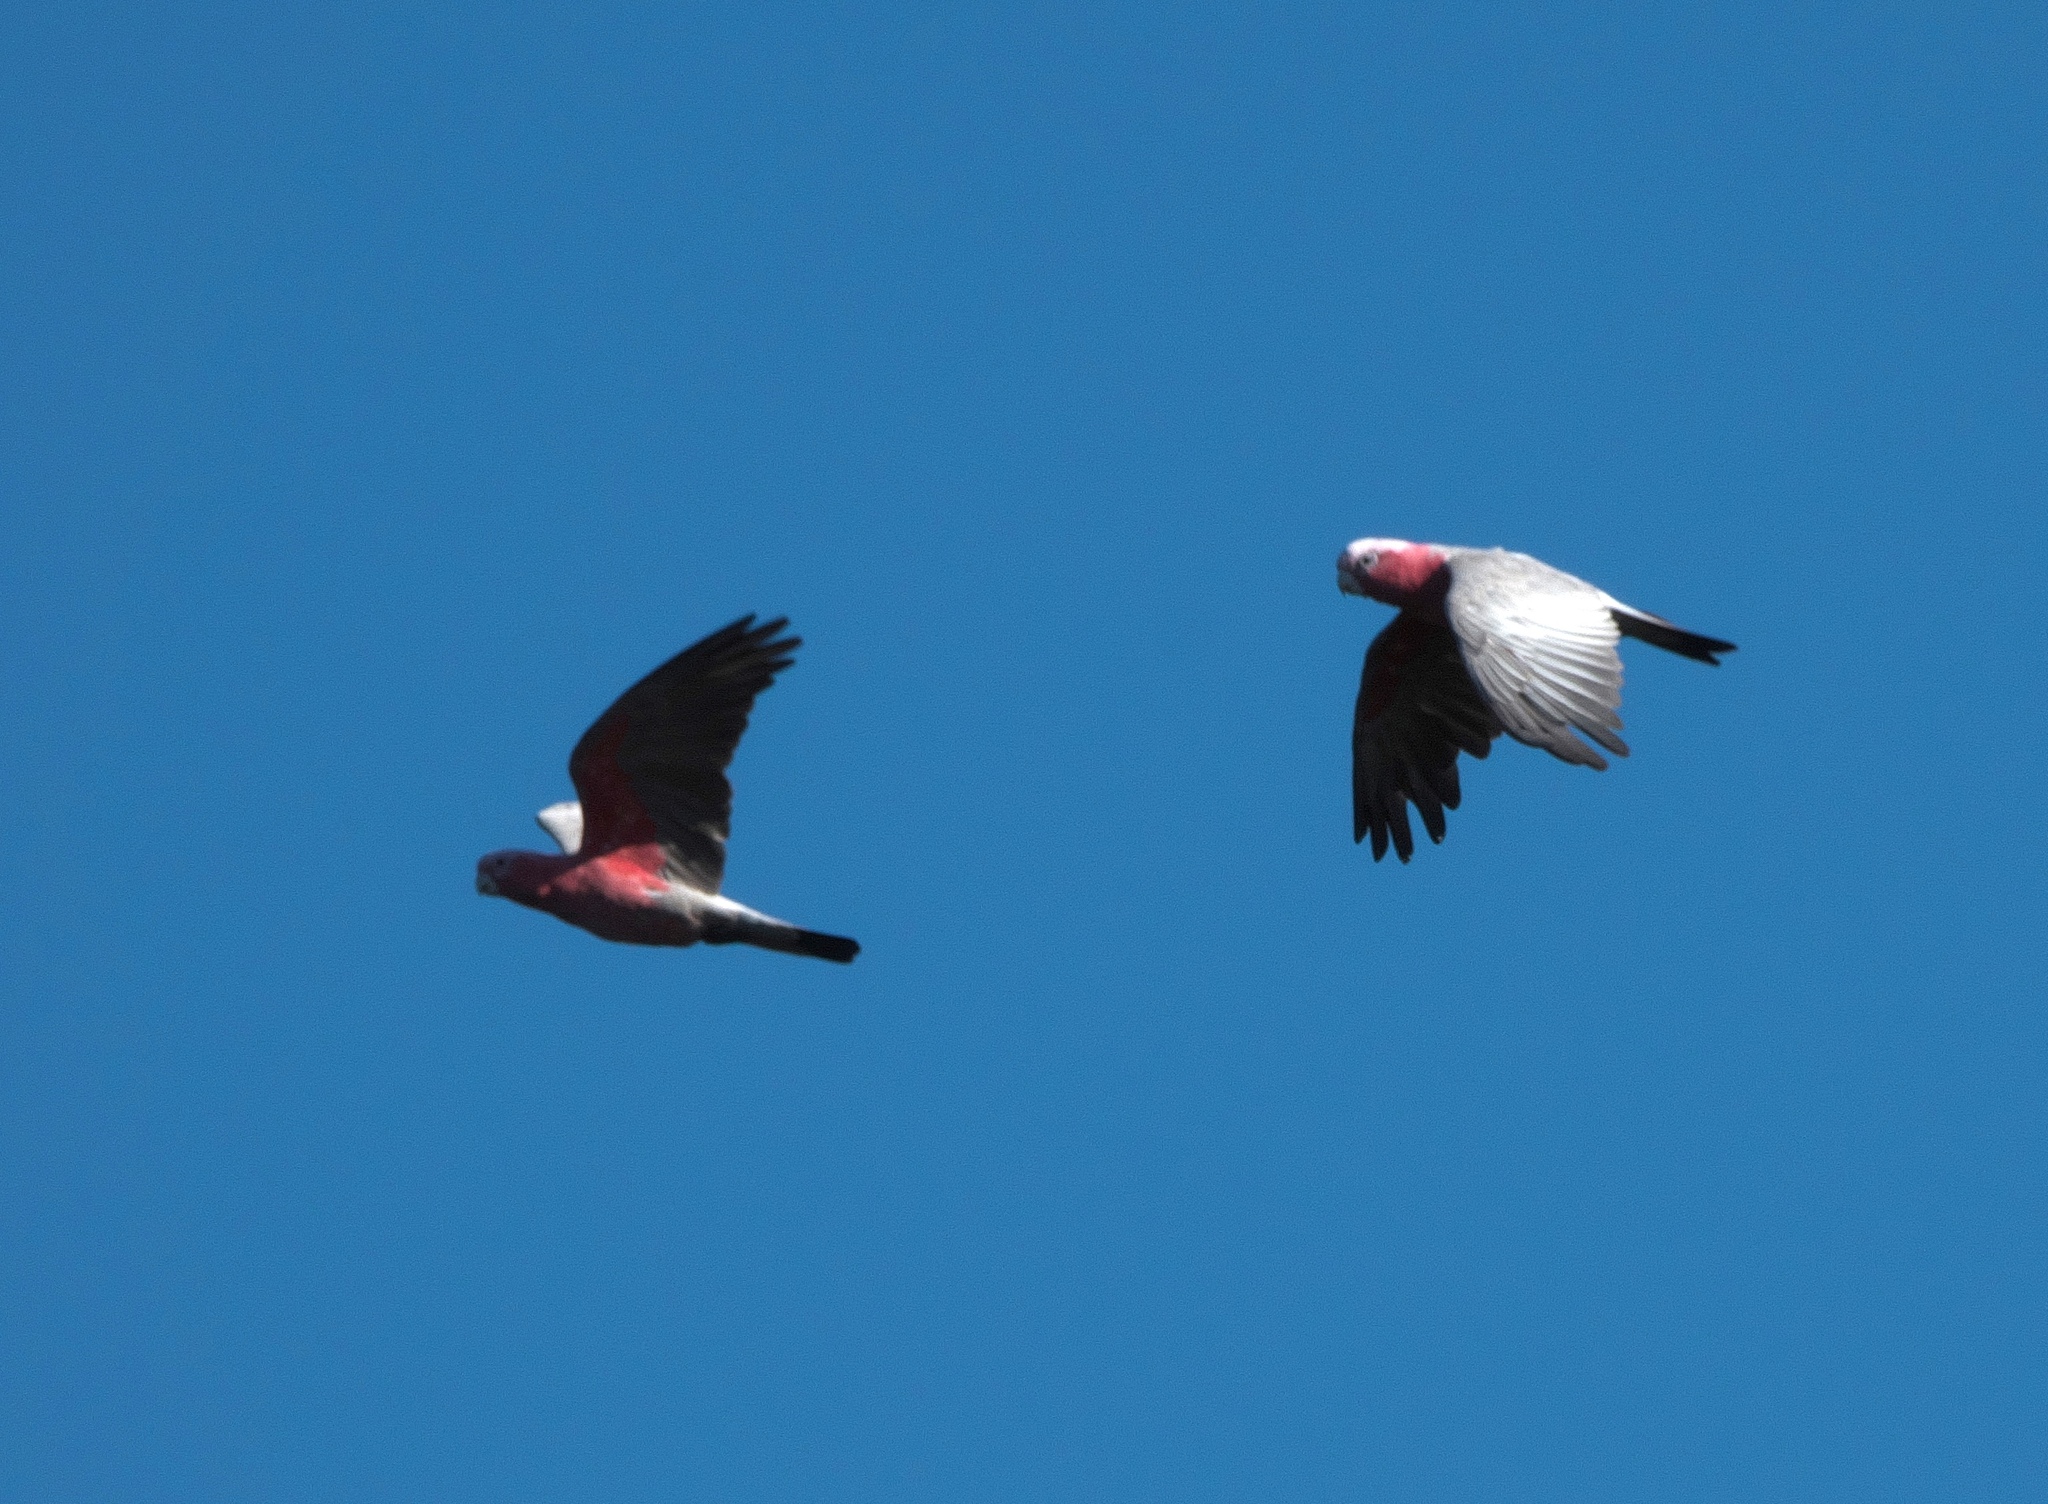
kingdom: Animalia
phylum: Chordata
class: Aves
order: Psittaciformes
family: Psittacidae
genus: Eolophus
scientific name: Eolophus roseicapilla
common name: Galah
